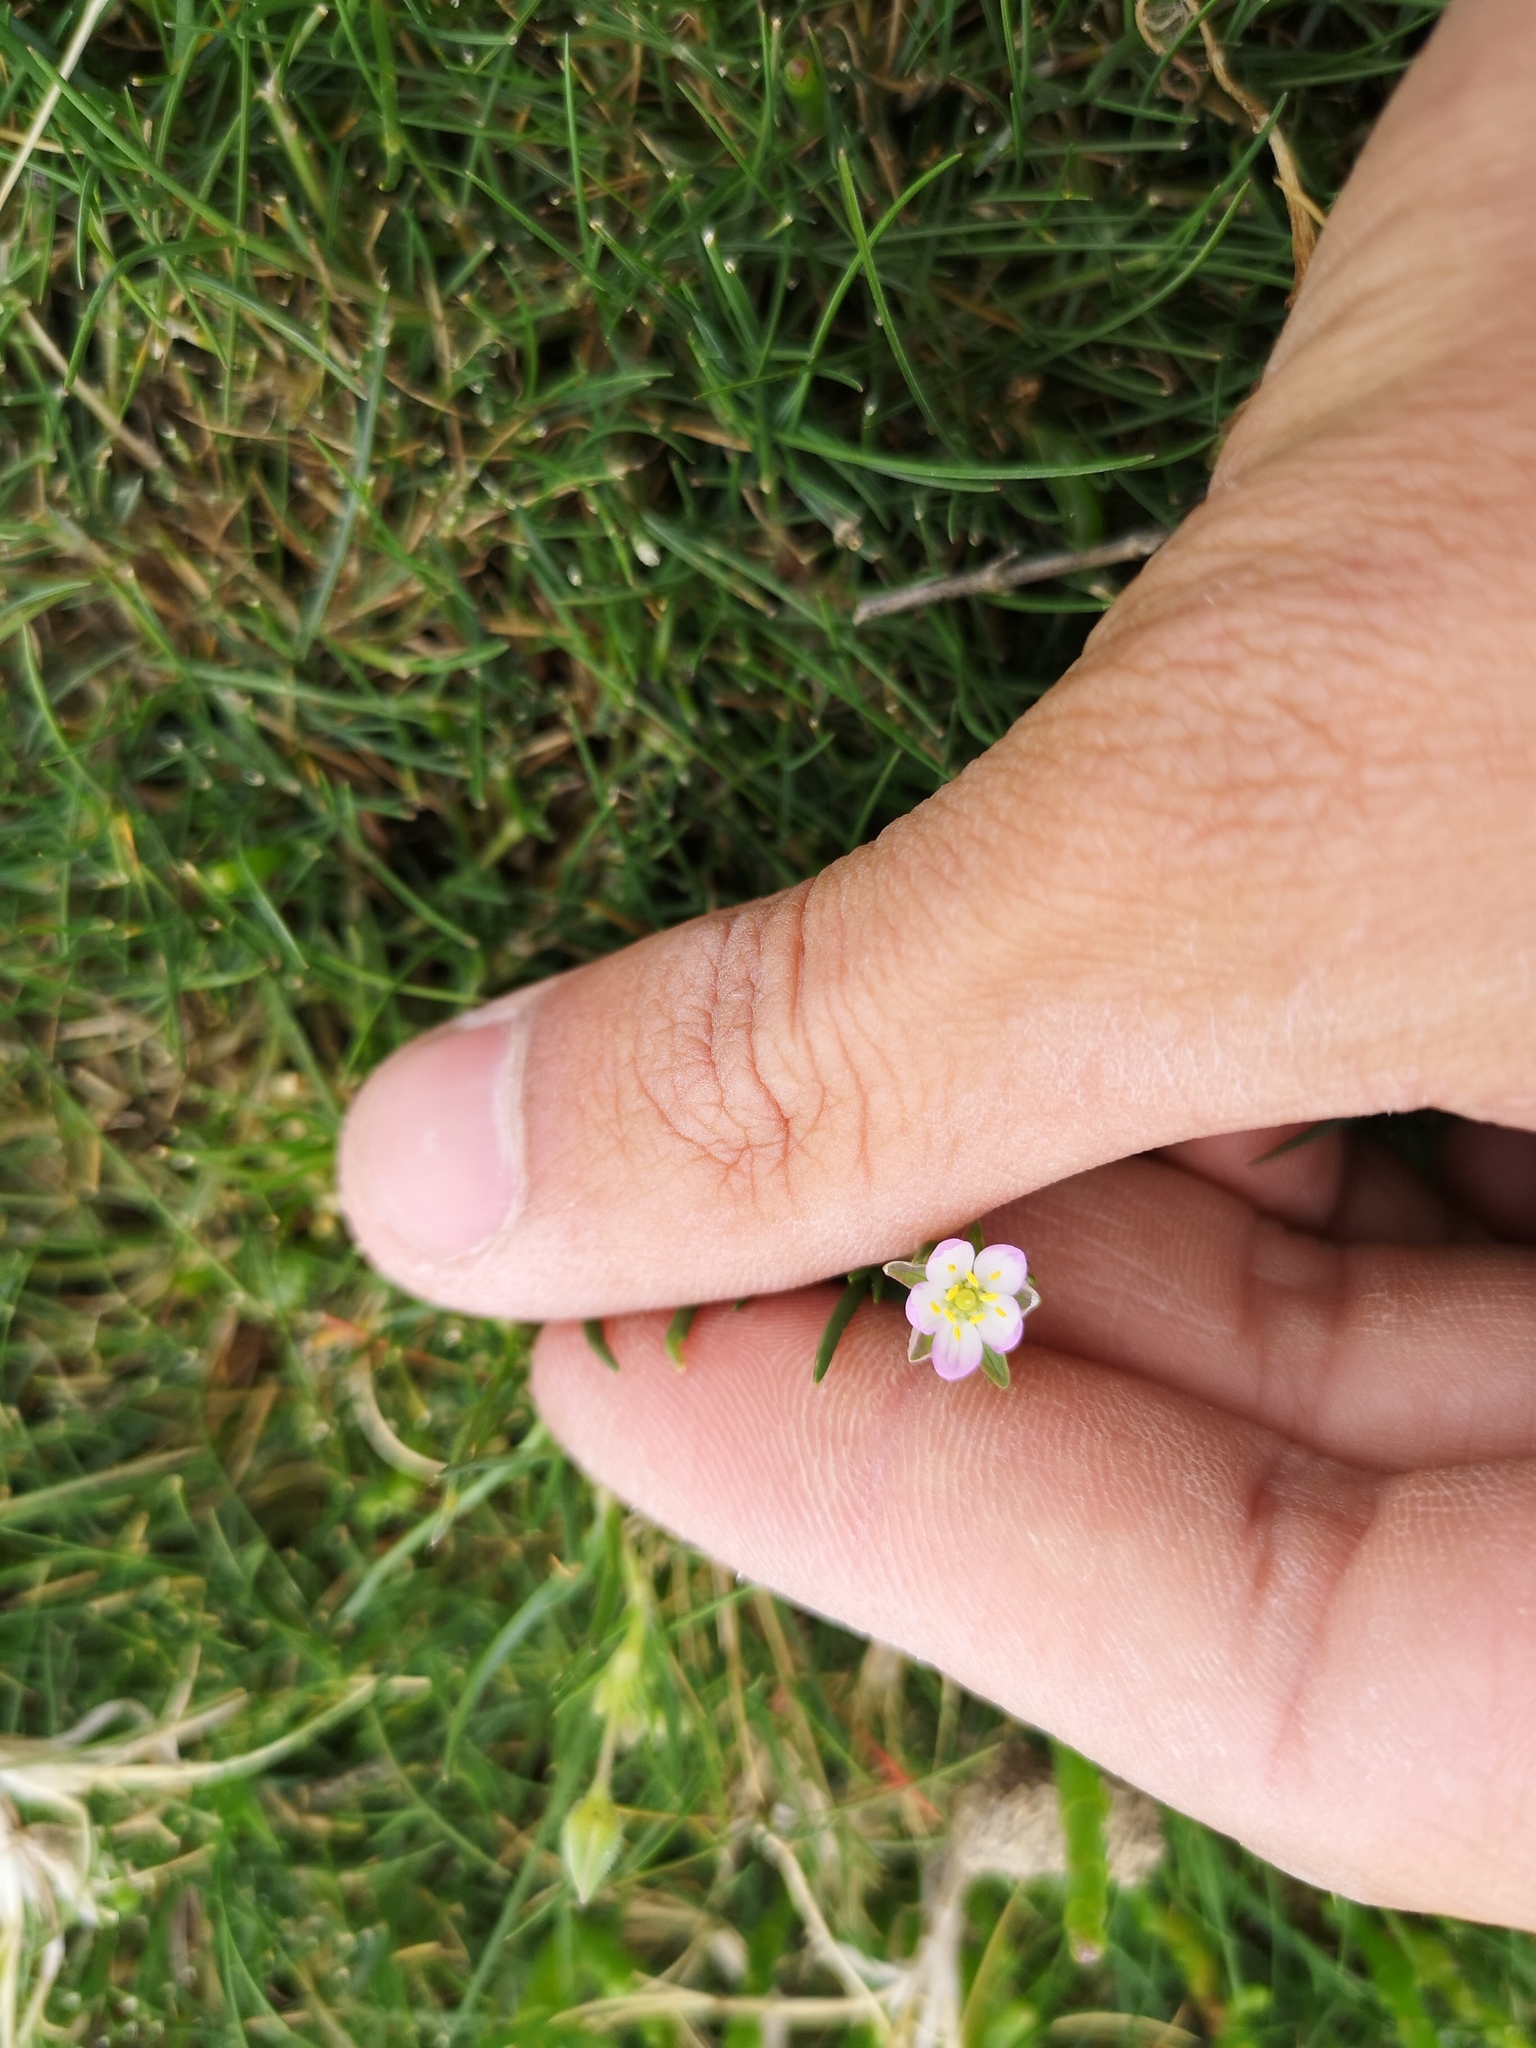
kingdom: Plantae
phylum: Tracheophyta
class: Magnoliopsida
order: Caryophyllales
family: Caryophyllaceae
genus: Spergularia
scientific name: Spergularia media
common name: Greater sea-spurrey
